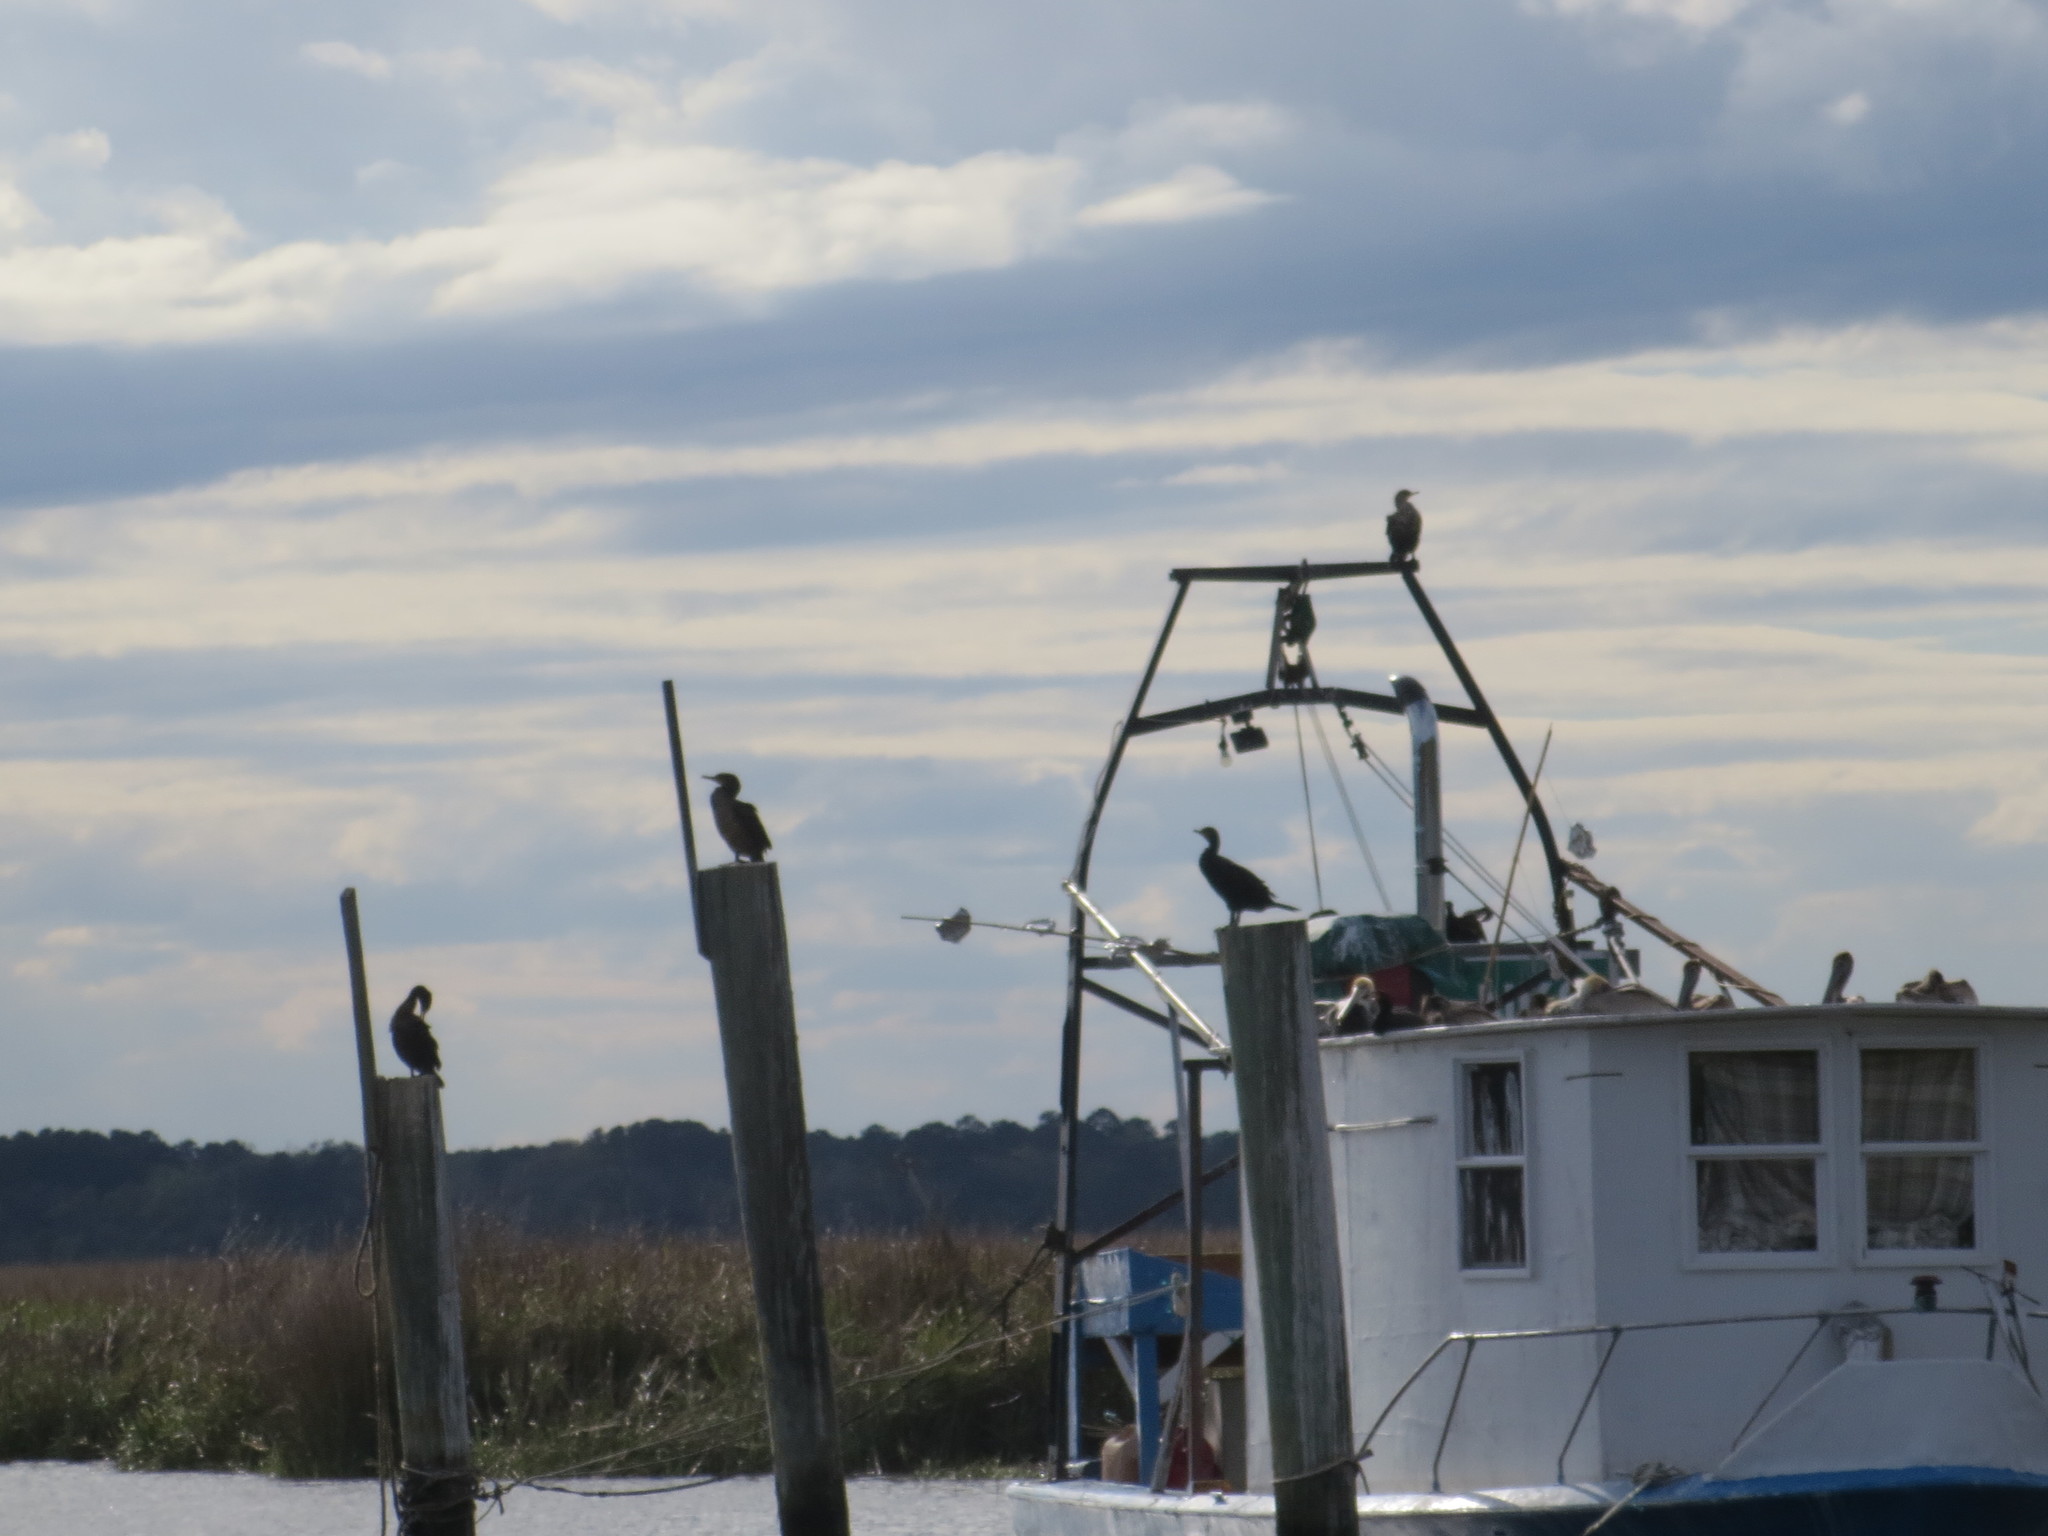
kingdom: Animalia
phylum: Chordata
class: Aves
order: Suliformes
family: Phalacrocoracidae
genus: Phalacrocorax
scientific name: Phalacrocorax auritus
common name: Double-crested cormorant
